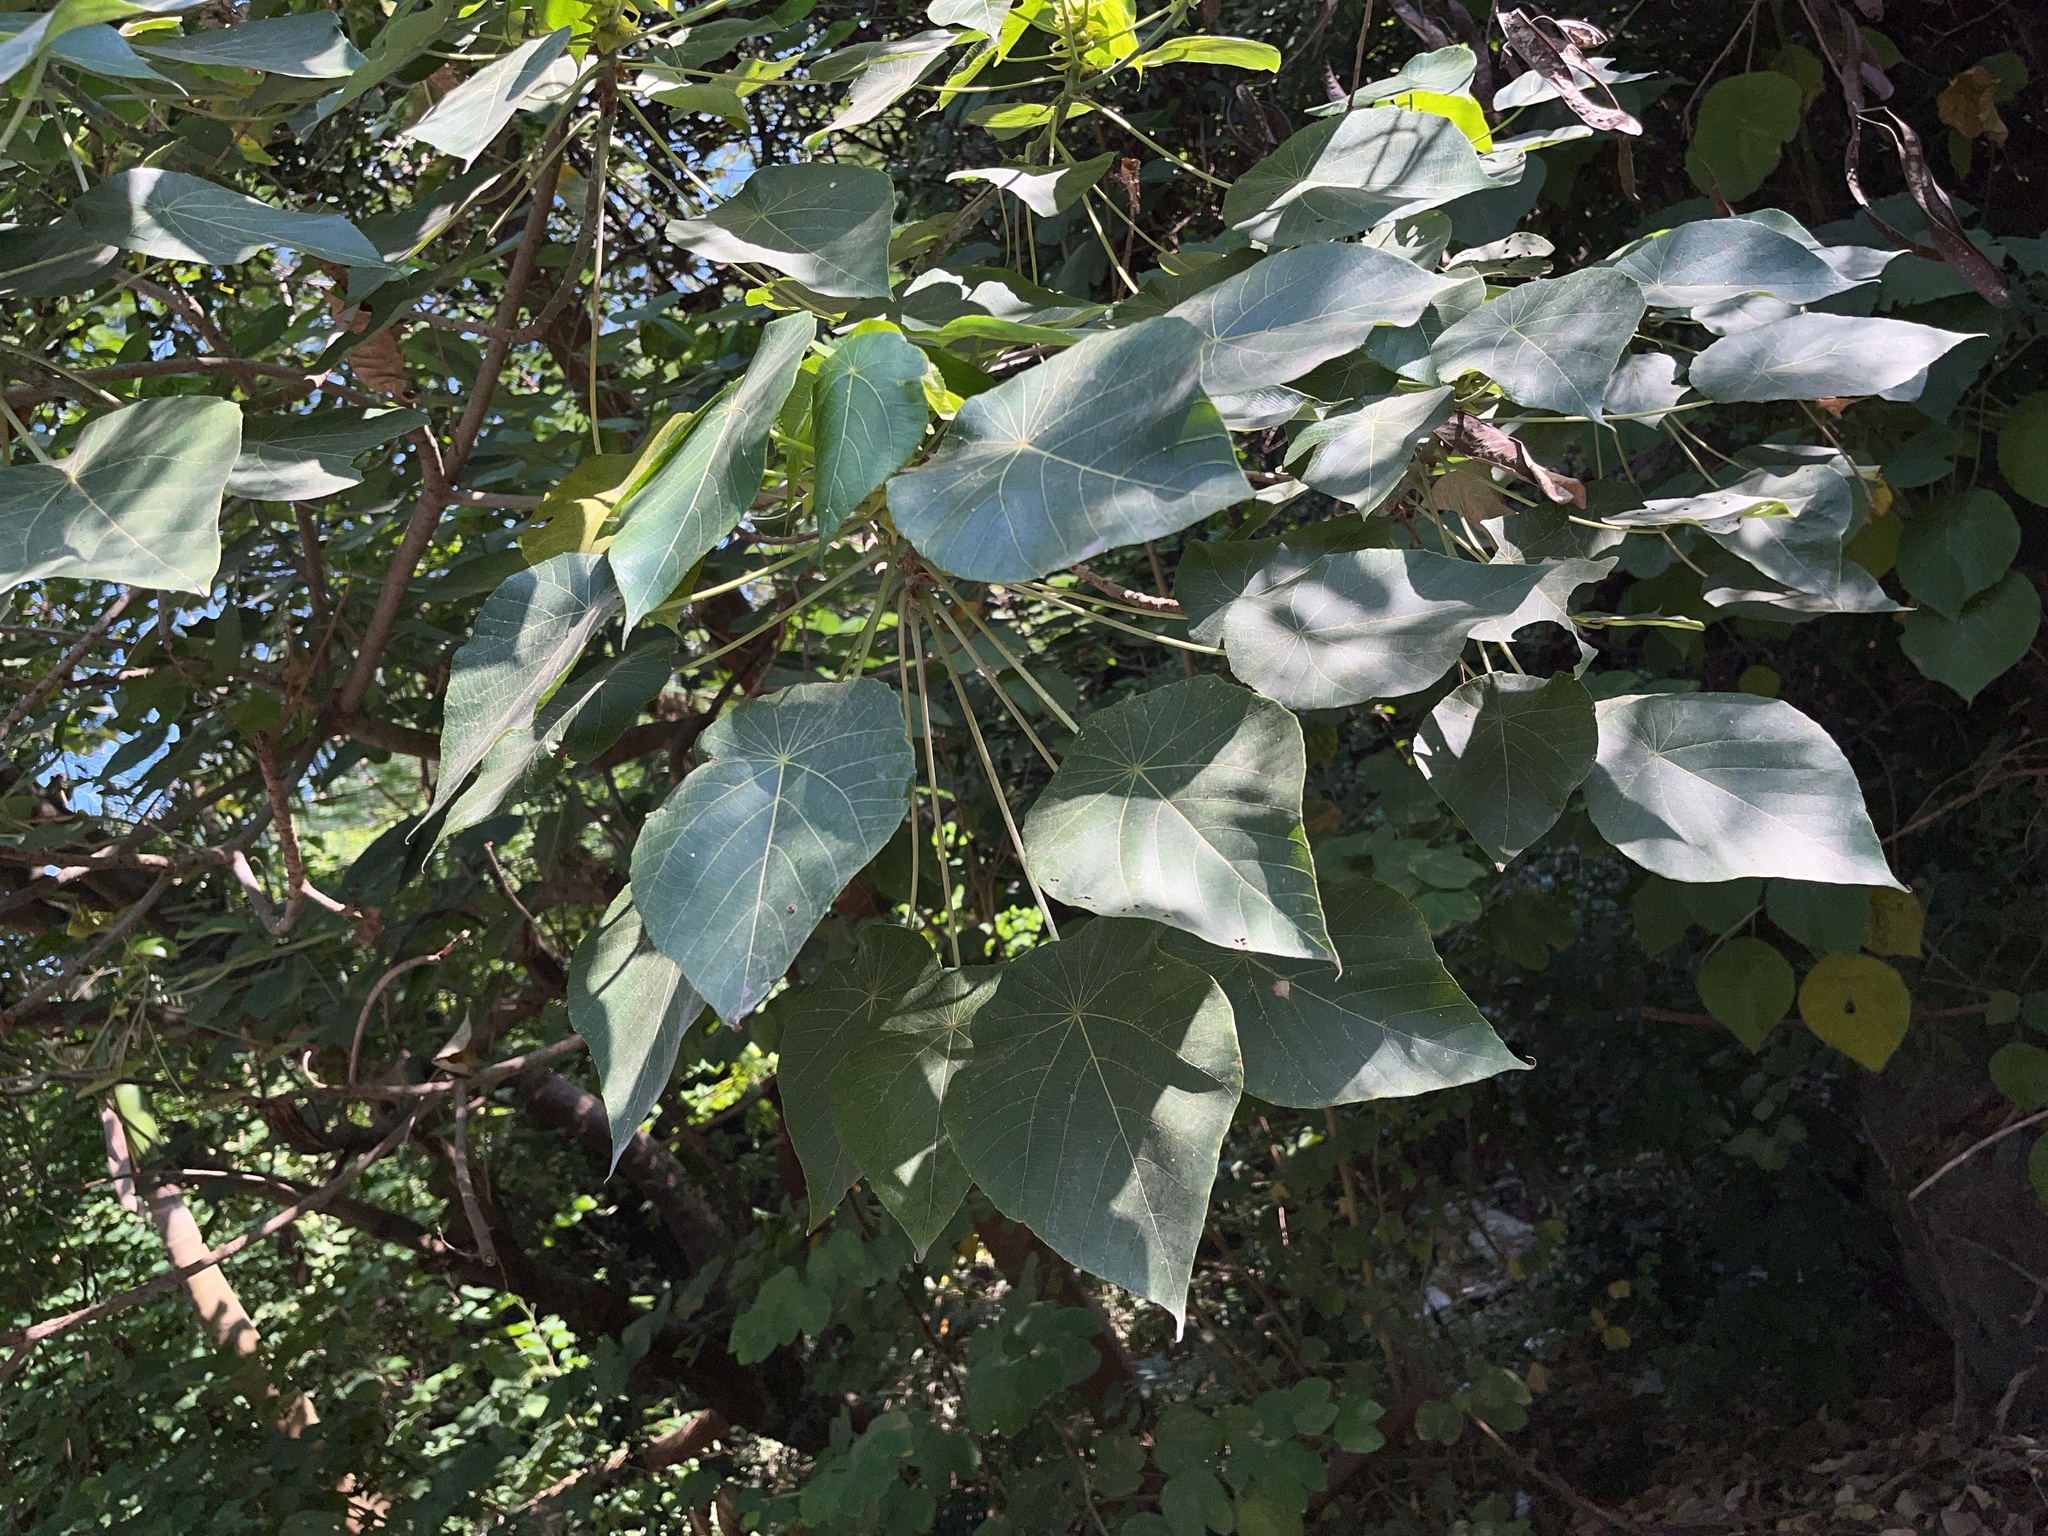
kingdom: Plantae
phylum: Tracheophyta
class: Magnoliopsida
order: Malpighiales
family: Euphorbiaceae
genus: Macaranga
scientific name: Macaranga tanarius
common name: Parasol leaf tree
